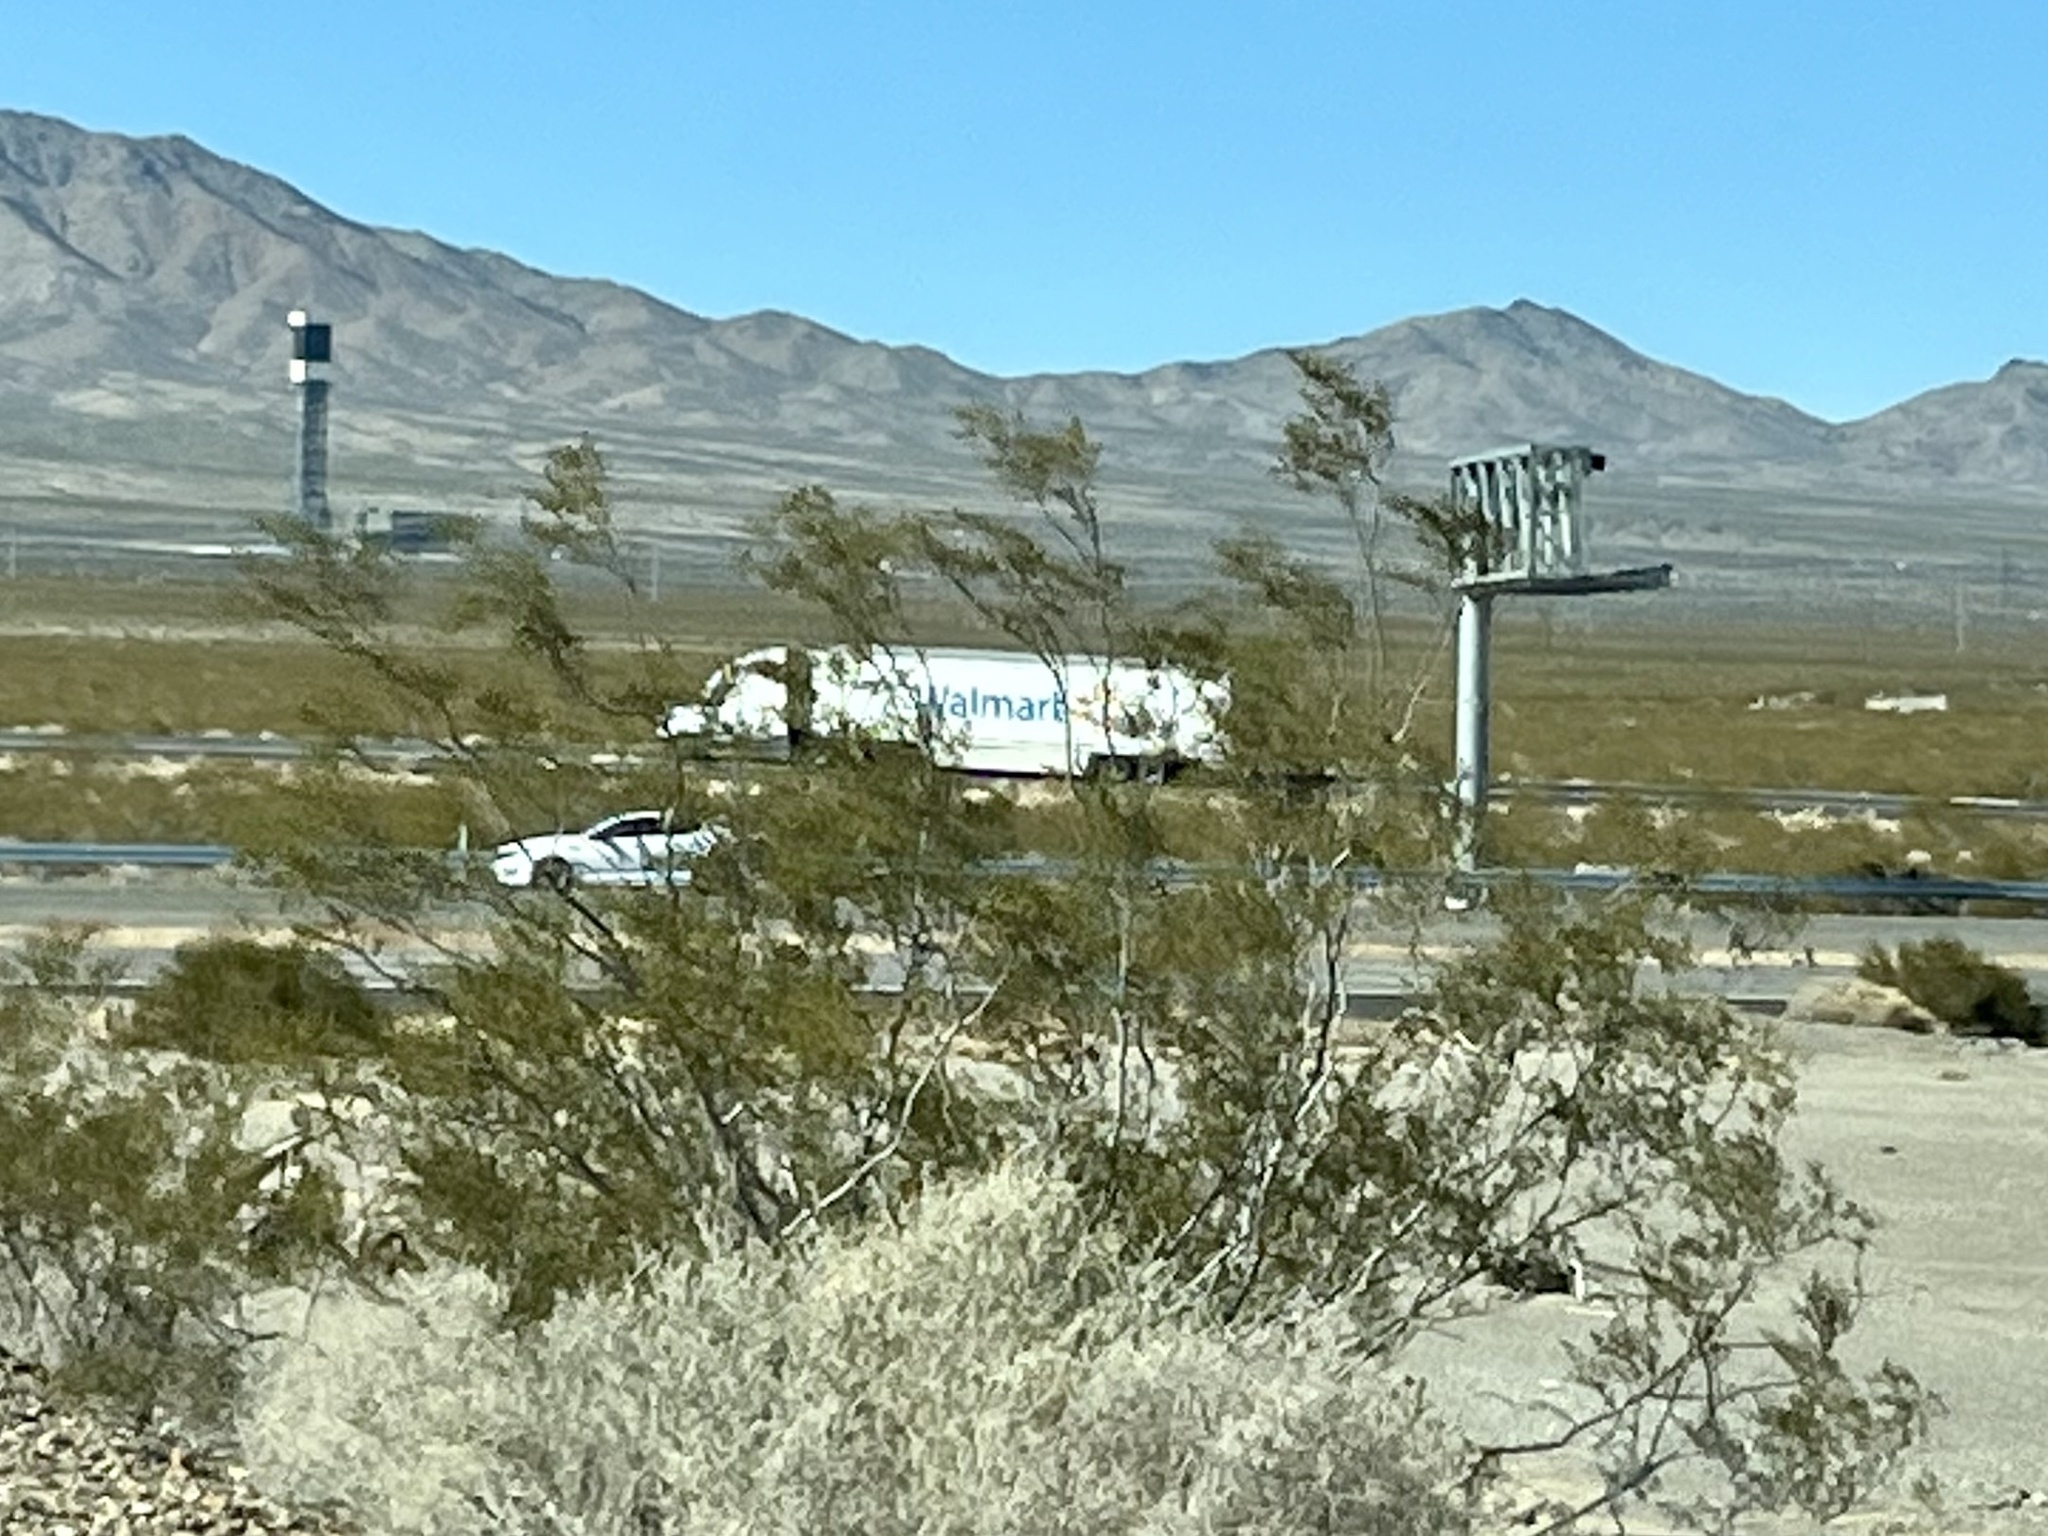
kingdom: Plantae
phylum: Tracheophyta
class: Magnoliopsida
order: Zygophyllales
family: Zygophyllaceae
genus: Larrea
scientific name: Larrea tridentata
